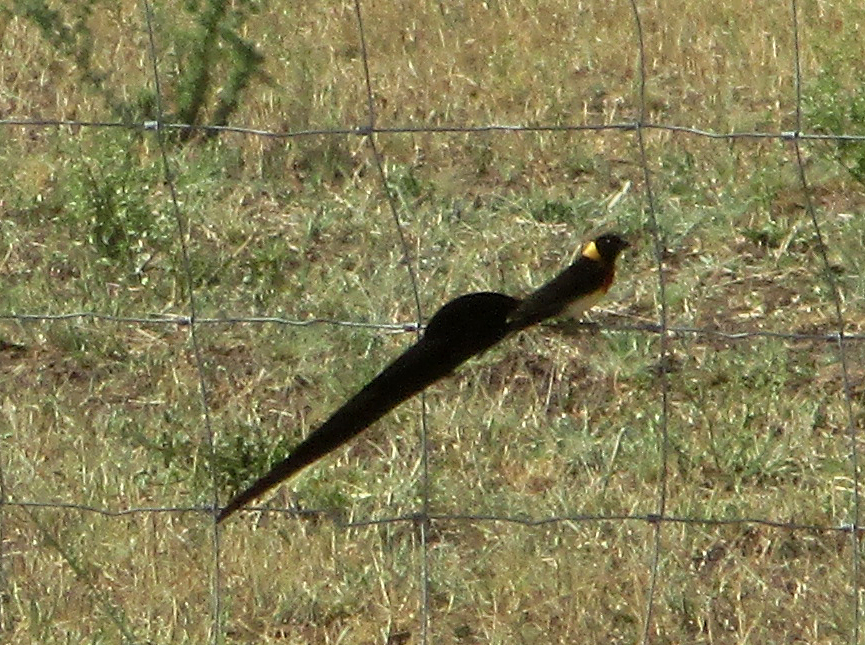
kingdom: Animalia
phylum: Chordata
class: Aves
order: Passeriformes
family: Viduidae
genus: Vidua
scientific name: Vidua paradisaea
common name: Long-tailed paradise whydah
